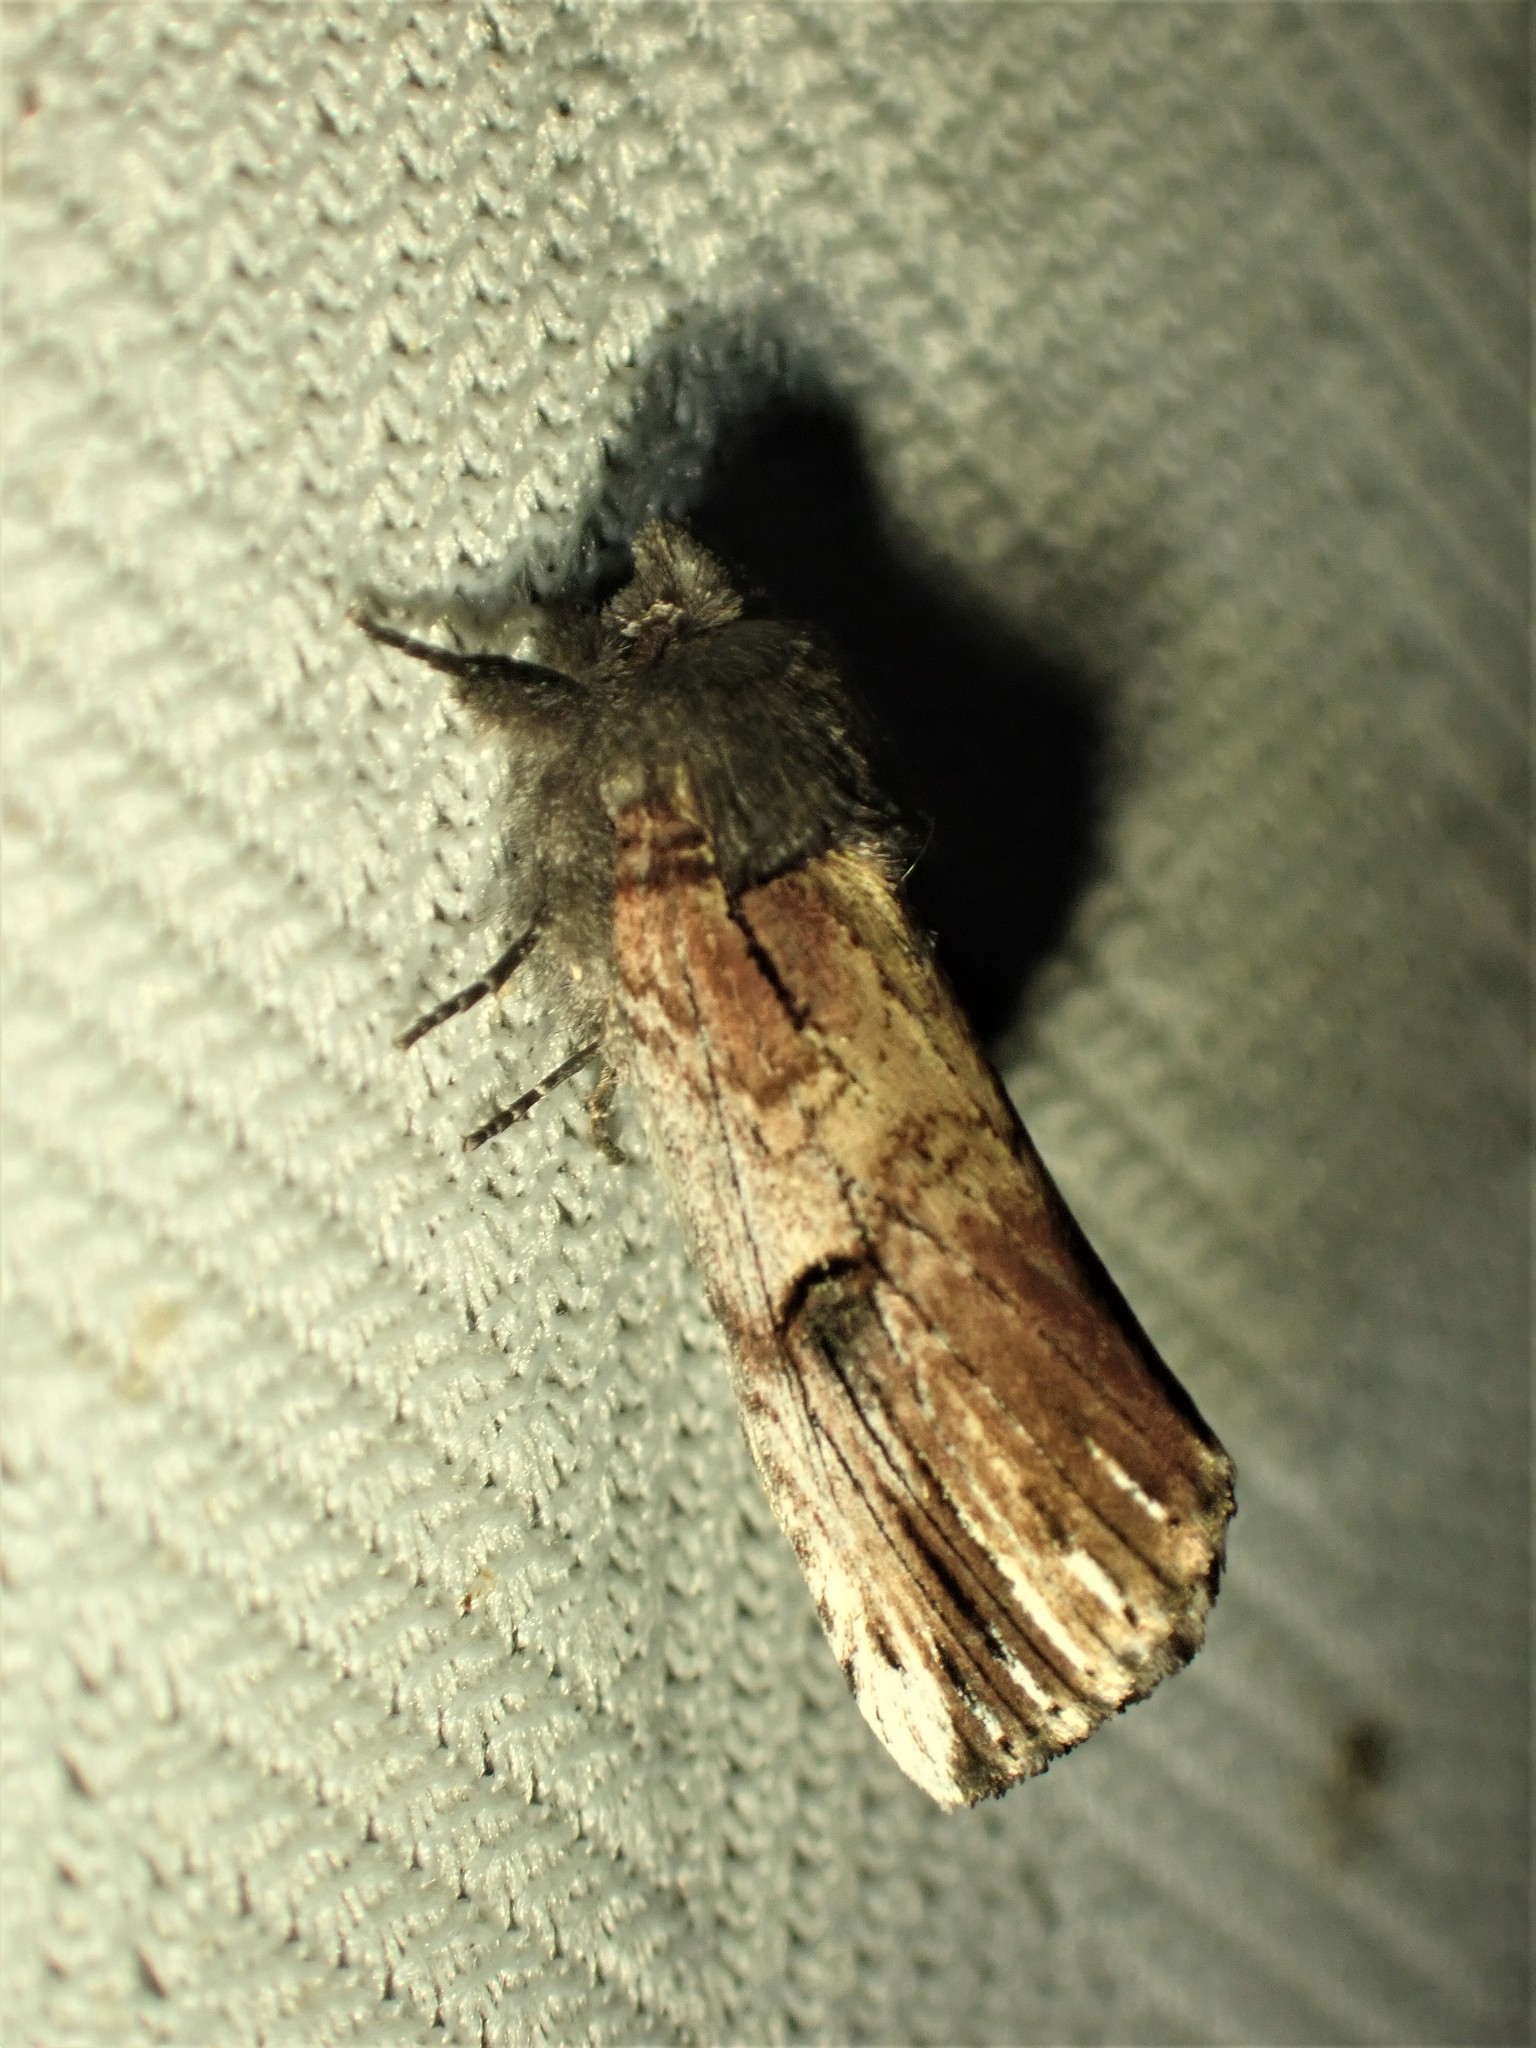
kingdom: Animalia
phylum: Arthropoda
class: Insecta
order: Lepidoptera
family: Notodontidae
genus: Schizura
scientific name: Schizura badia
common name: Chestnut schizura
